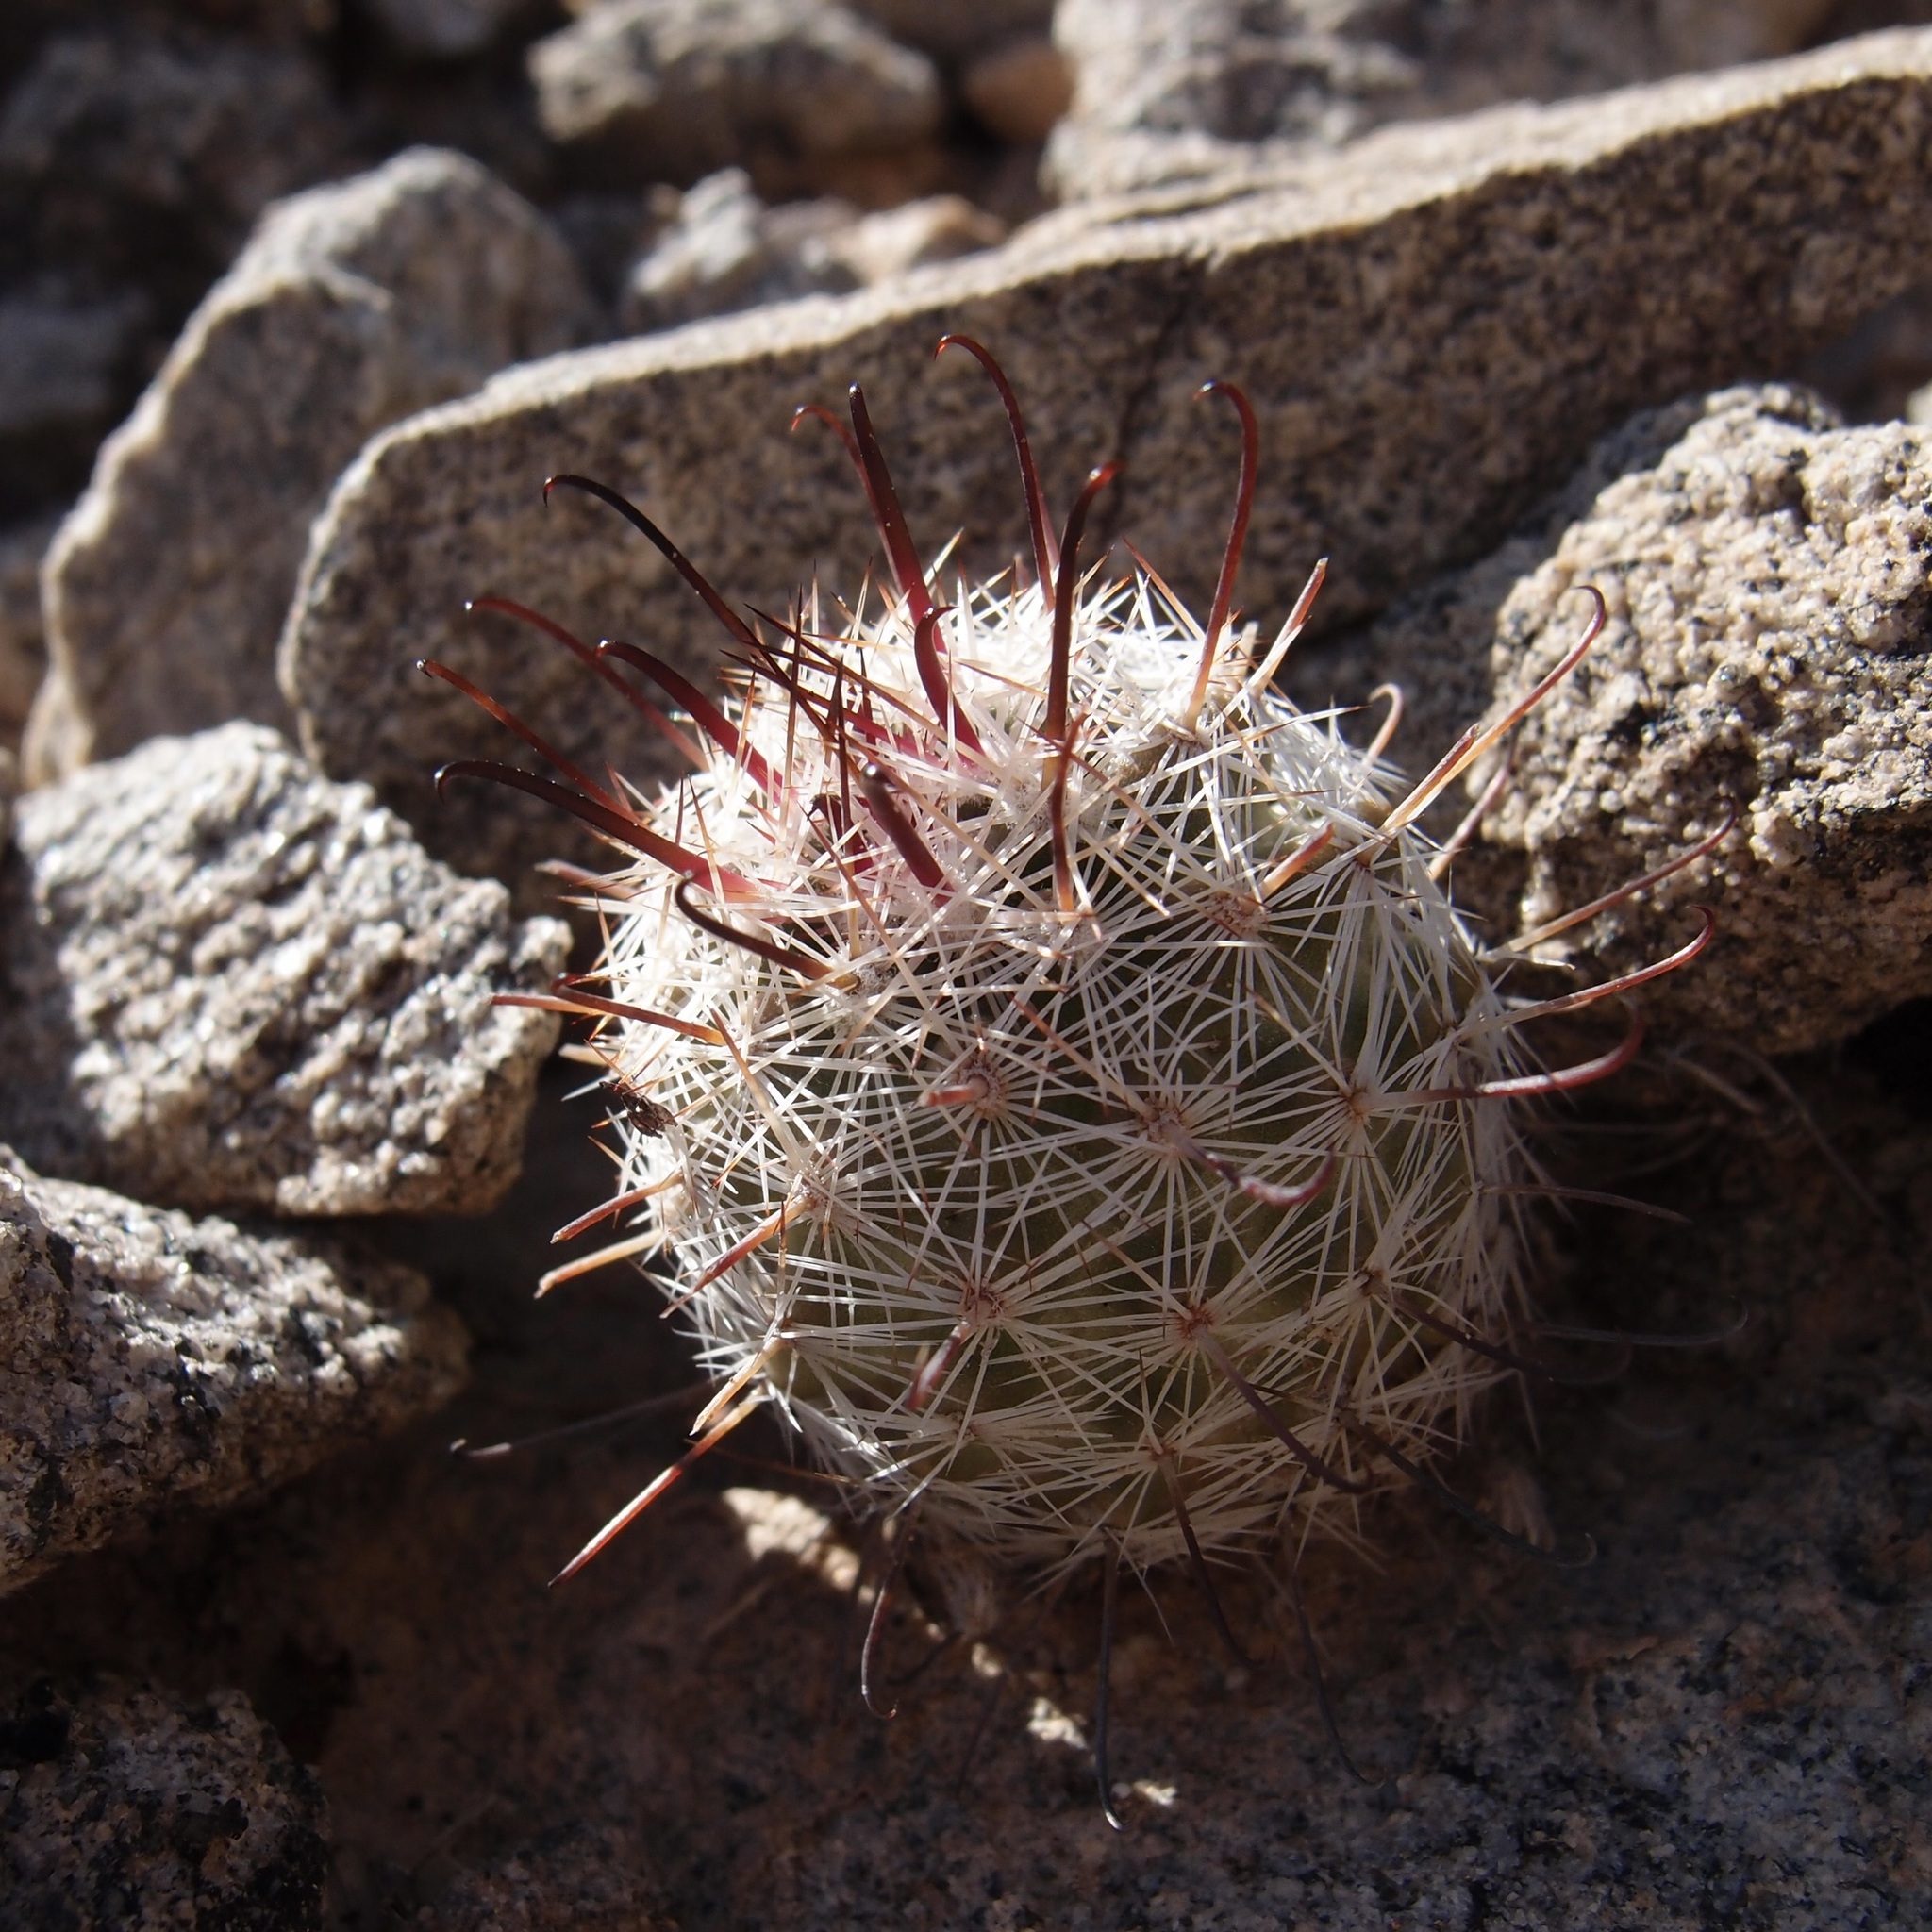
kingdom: Plantae
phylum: Tracheophyta
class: Magnoliopsida
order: Caryophyllales
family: Cactaceae
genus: Cochemiea
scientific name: Cochemiea grahamii
